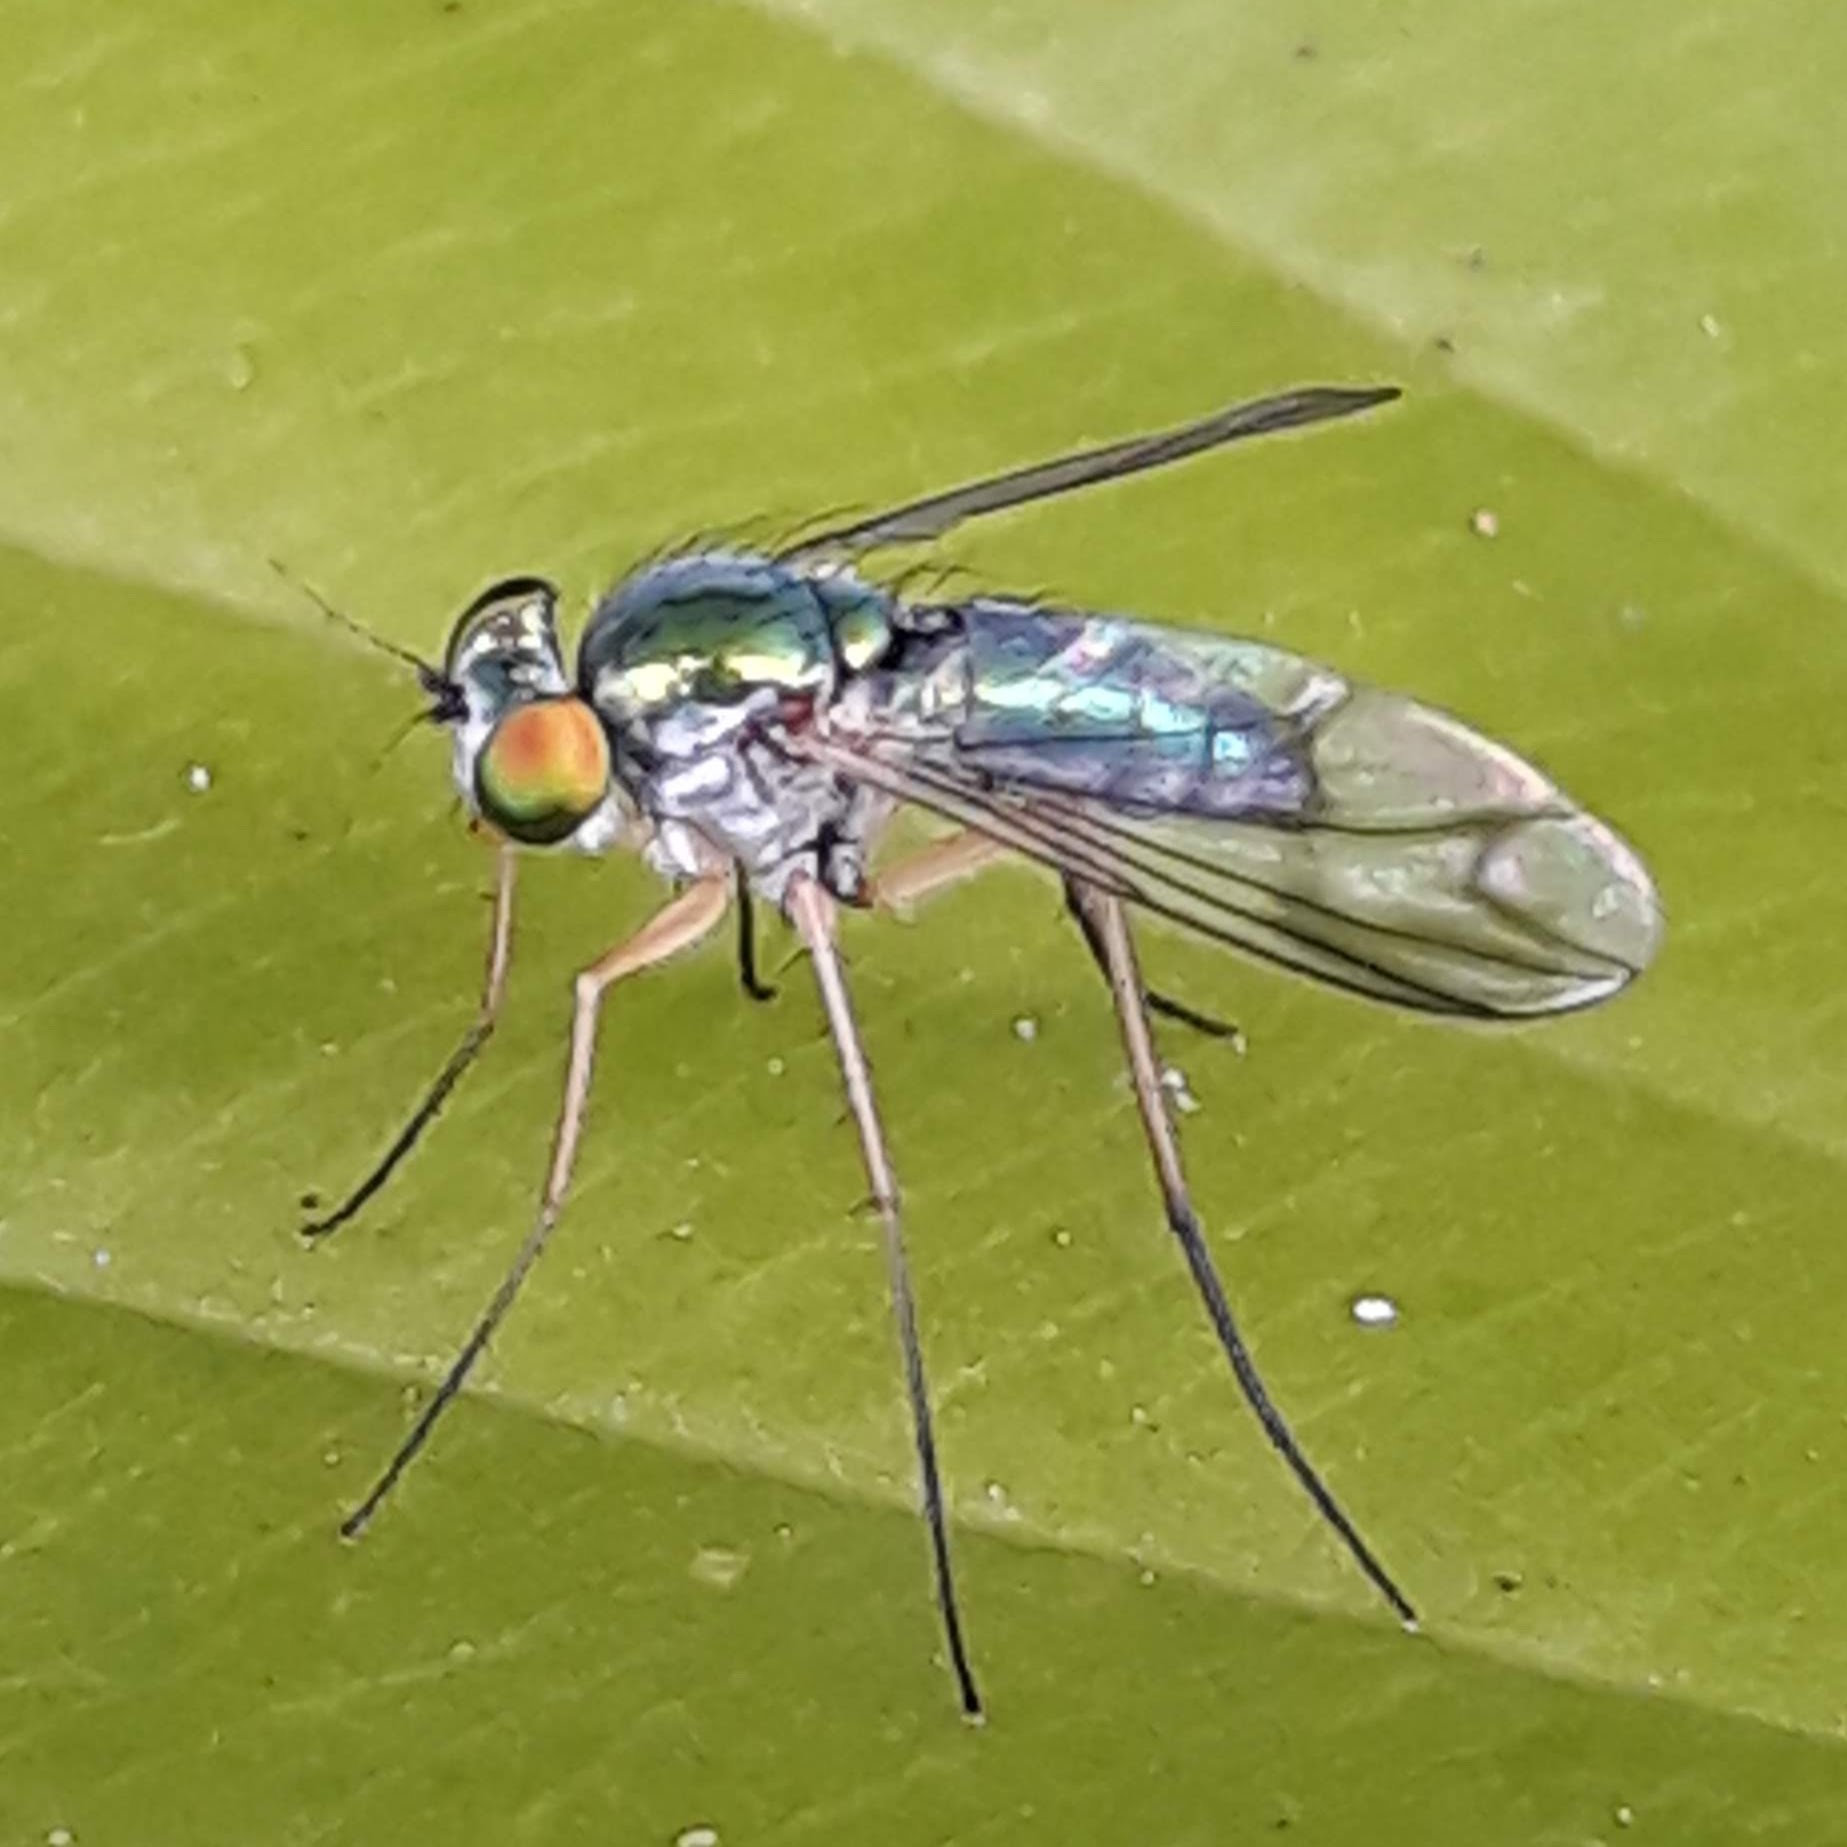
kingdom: Animalia
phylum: Arthropoda
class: Insecta
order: Diptera
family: Dolichopodidae
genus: Condylostylus
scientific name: Condylostylus
